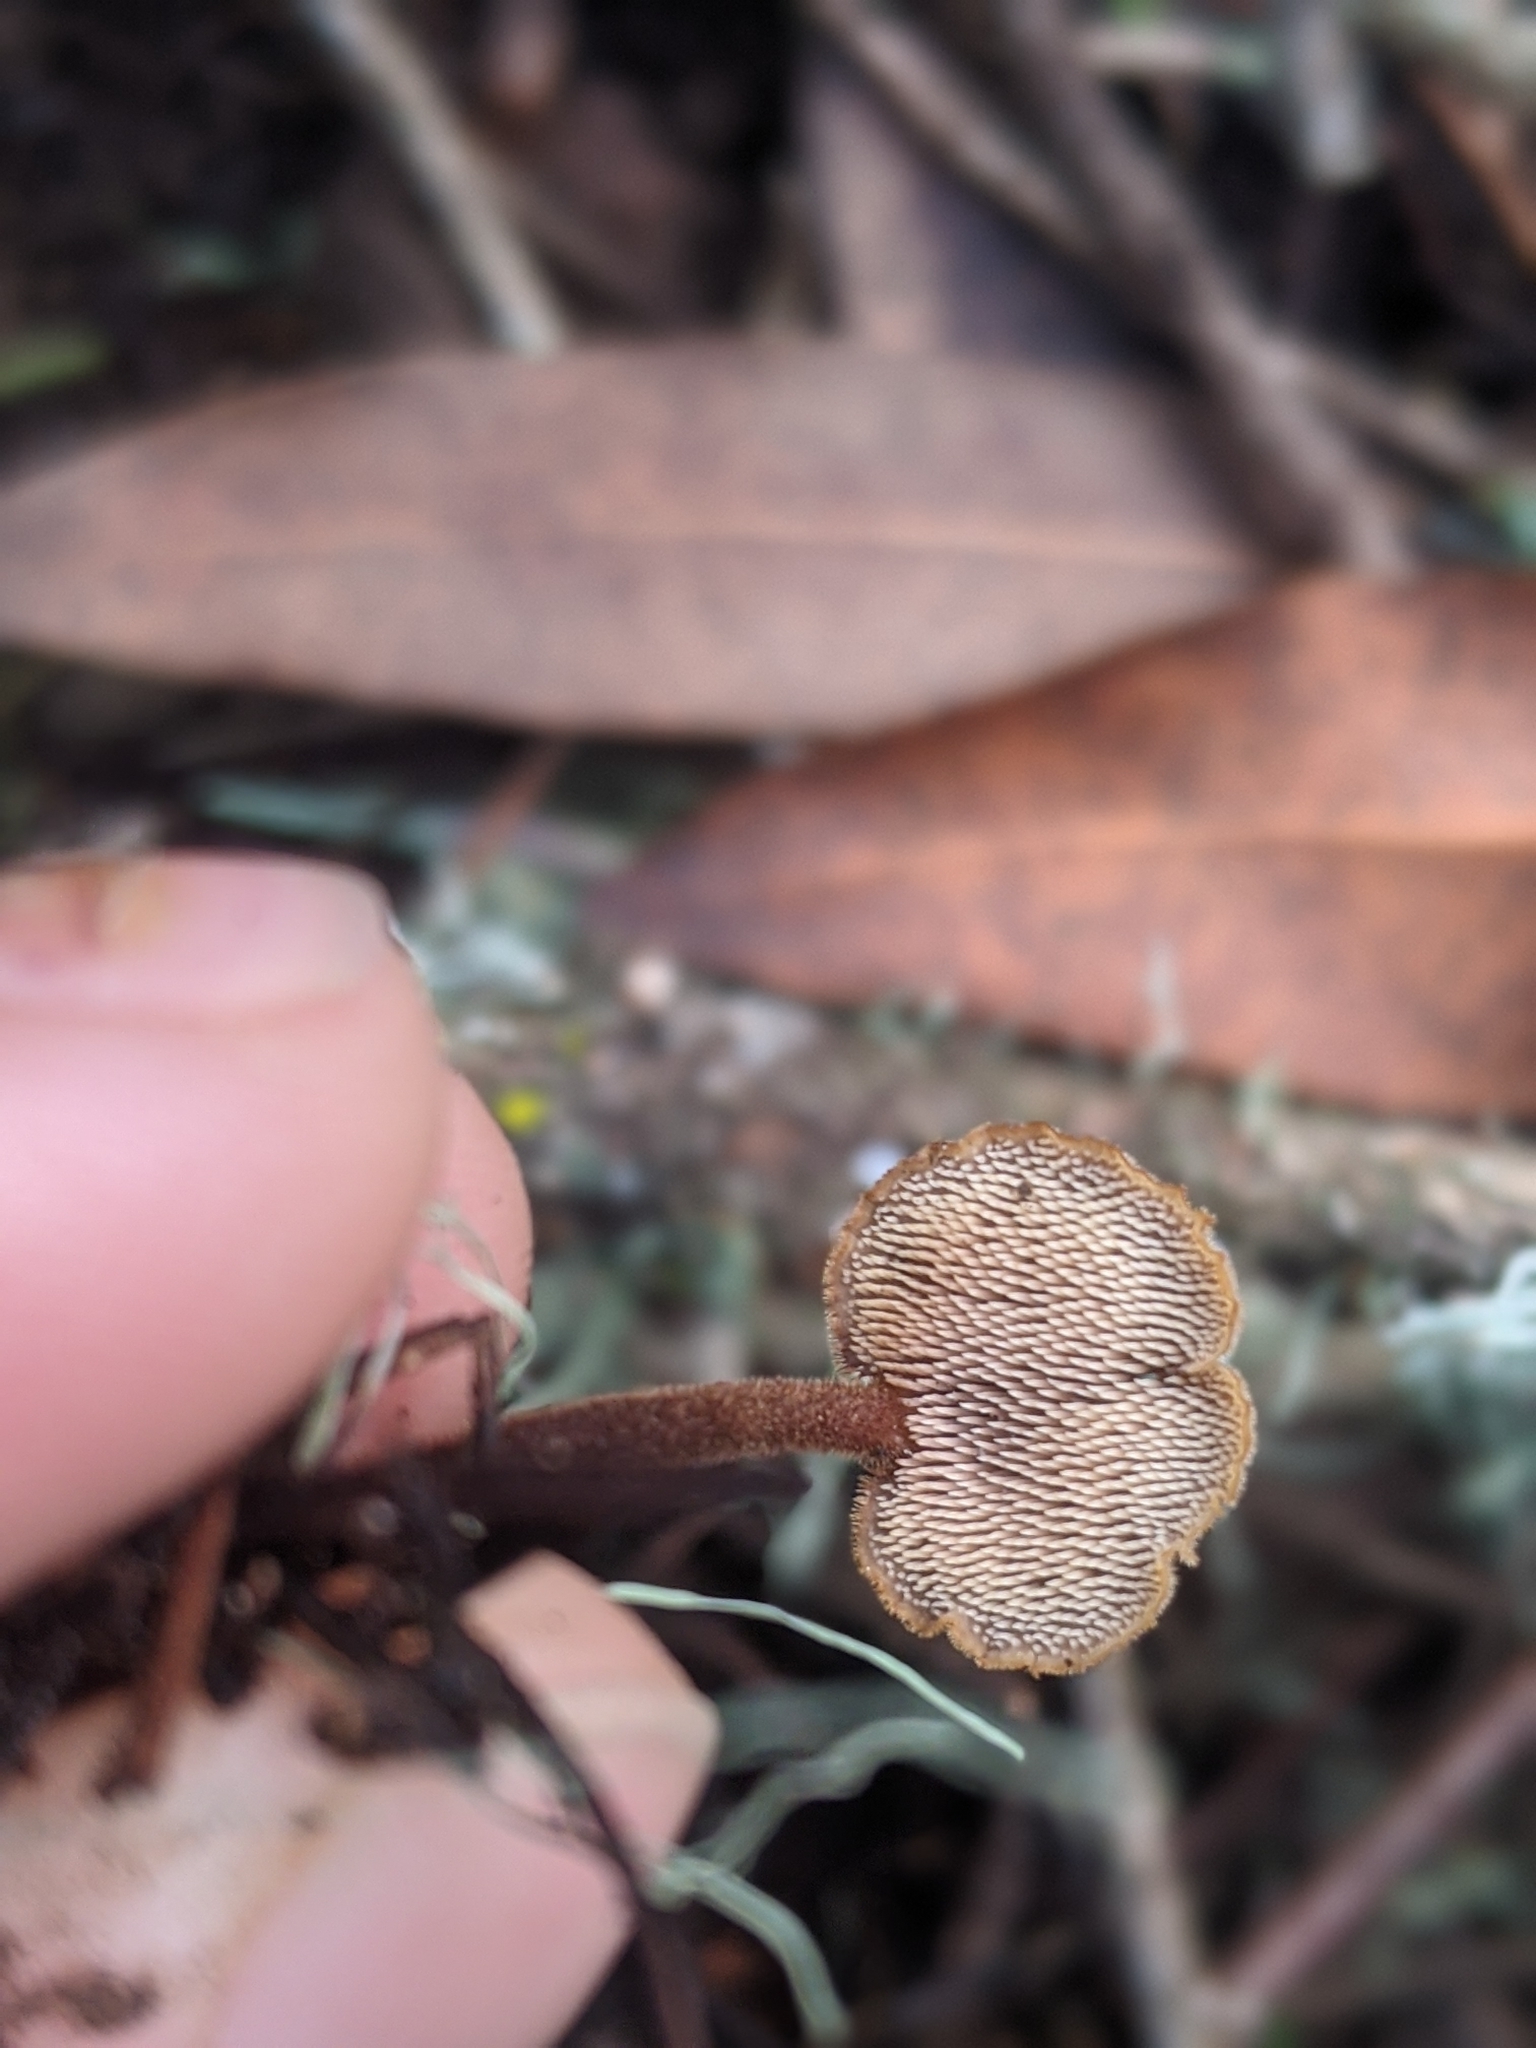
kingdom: Fungi
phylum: Basidiomycota
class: Agaricomycetes
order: Russulales
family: Auriscalpiaceae
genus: Auriscalpium
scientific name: Auriscalpium vulgare
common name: Earpick fungus
